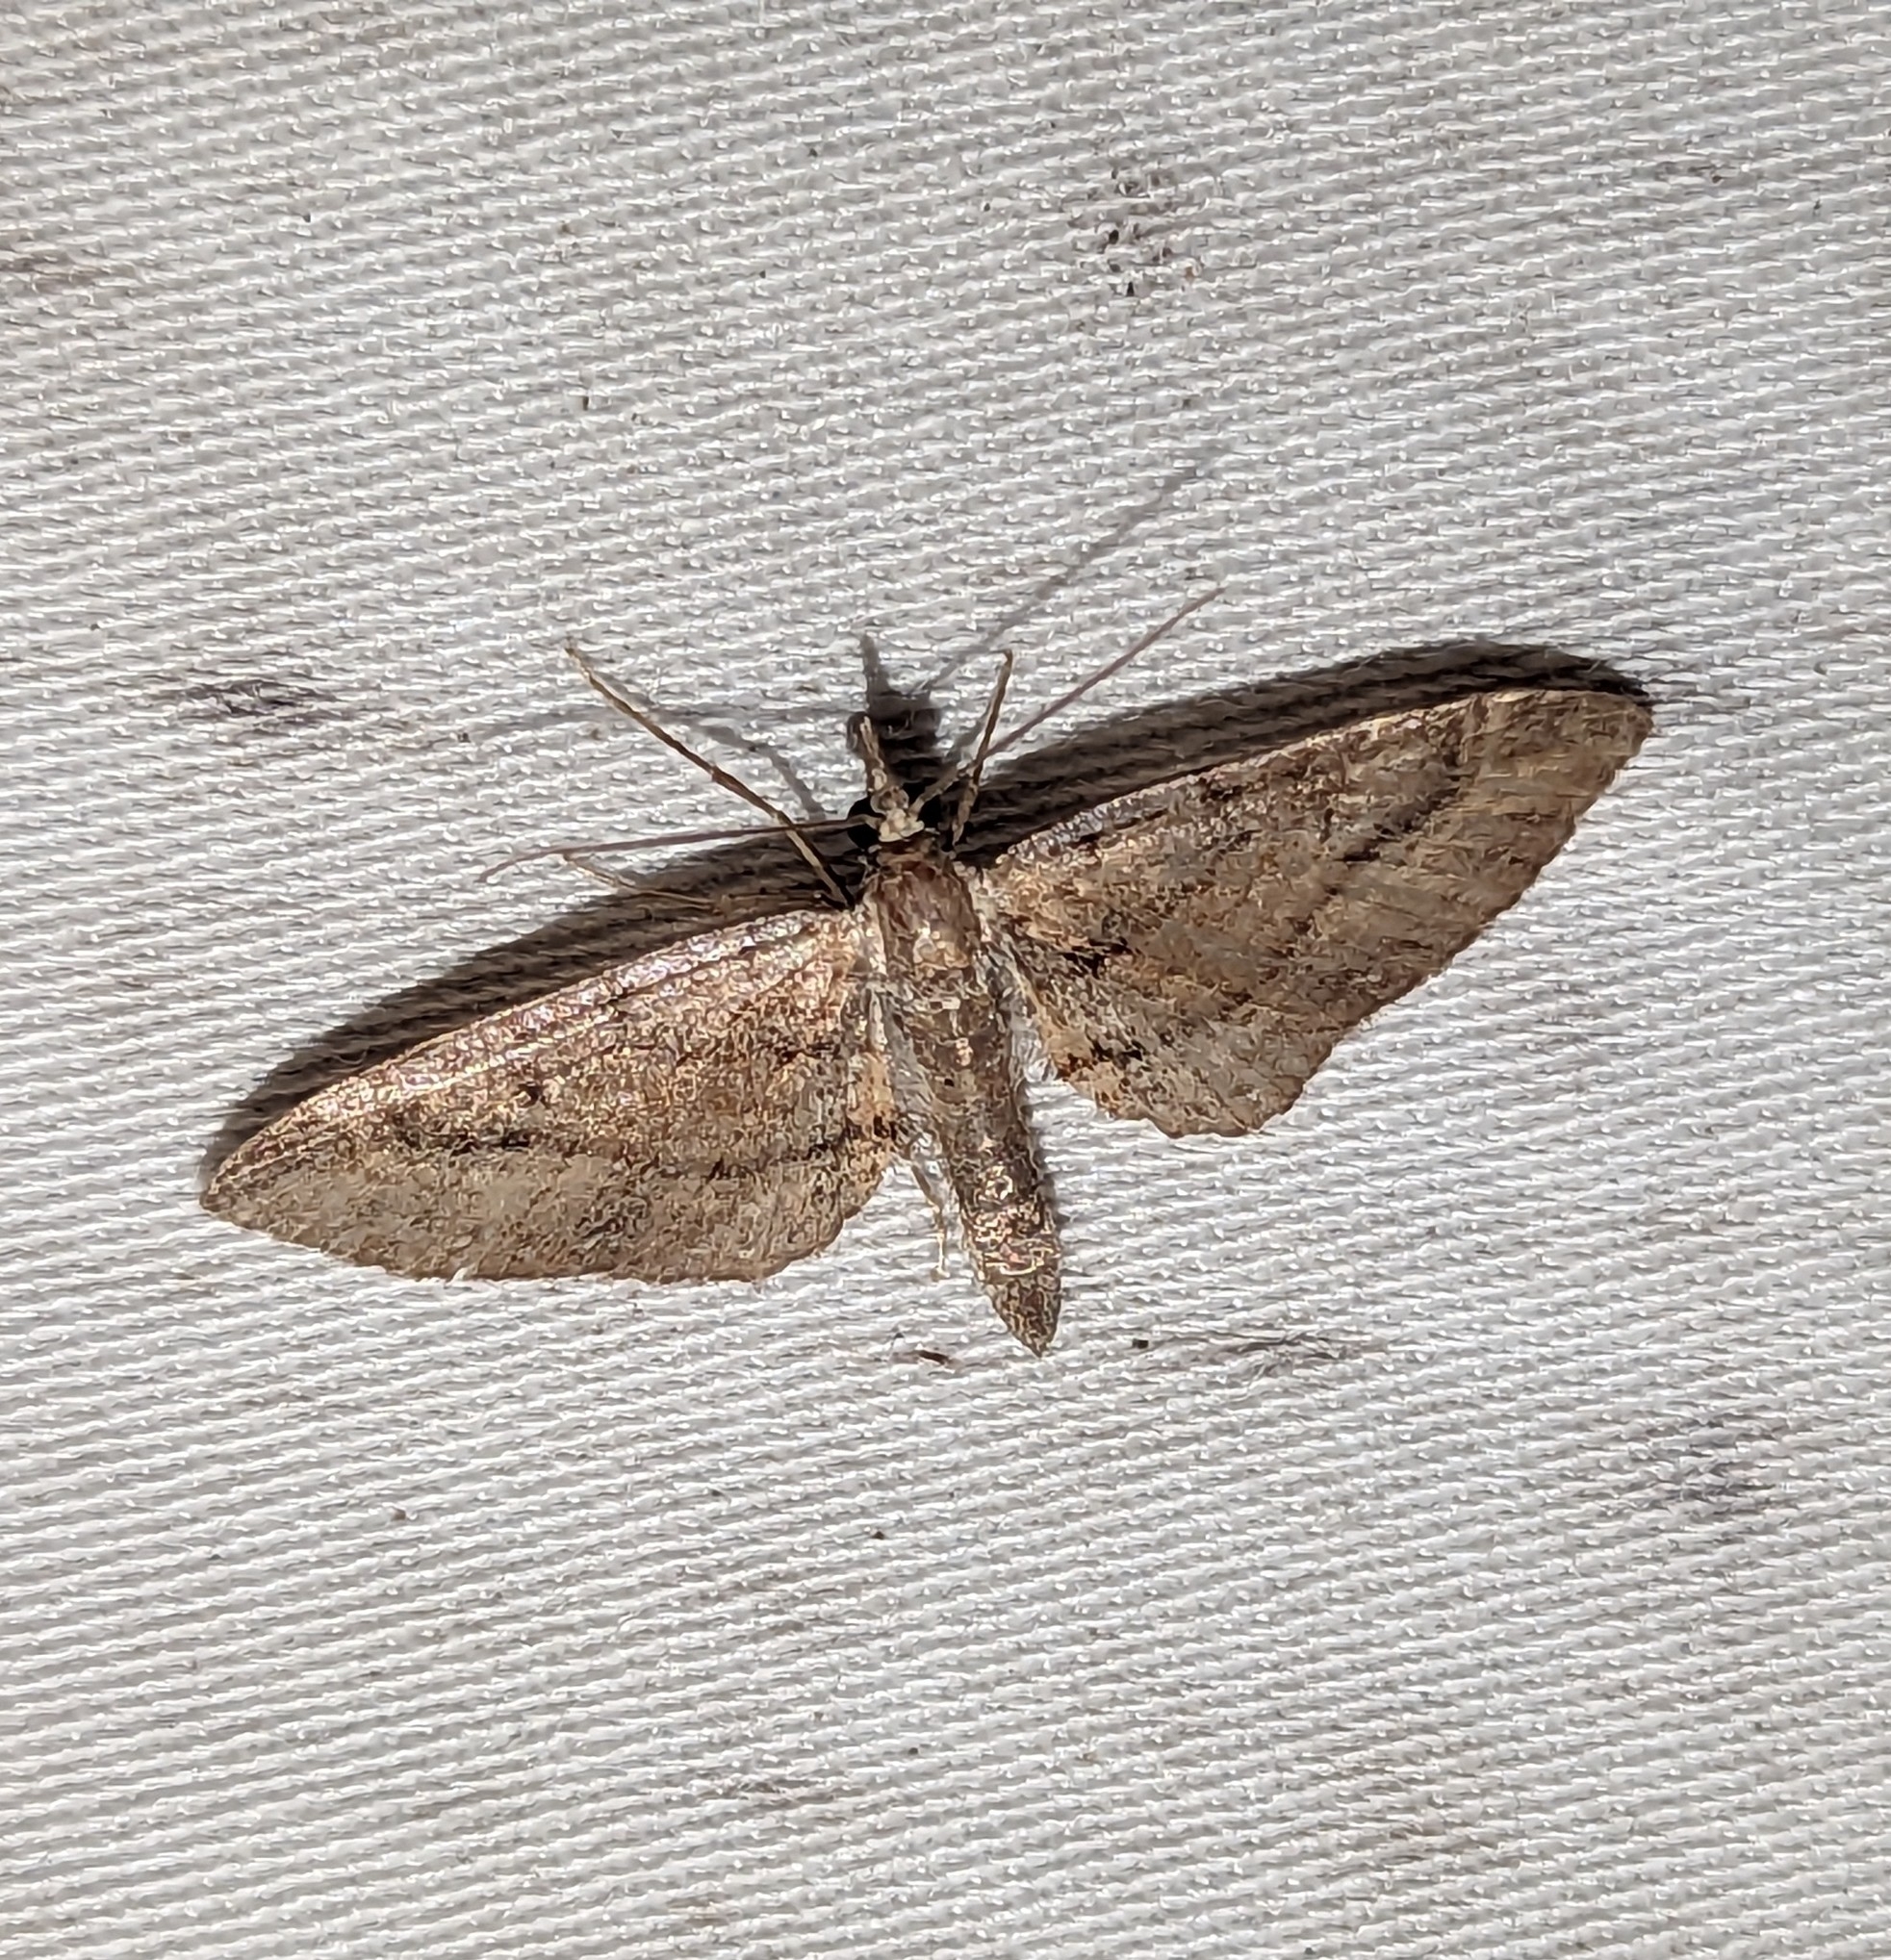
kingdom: Animalia
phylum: Arthropoda
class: Insecta
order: Lepidoptera
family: Geometridae
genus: Eupithecia
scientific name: Eupithecia unicolor
